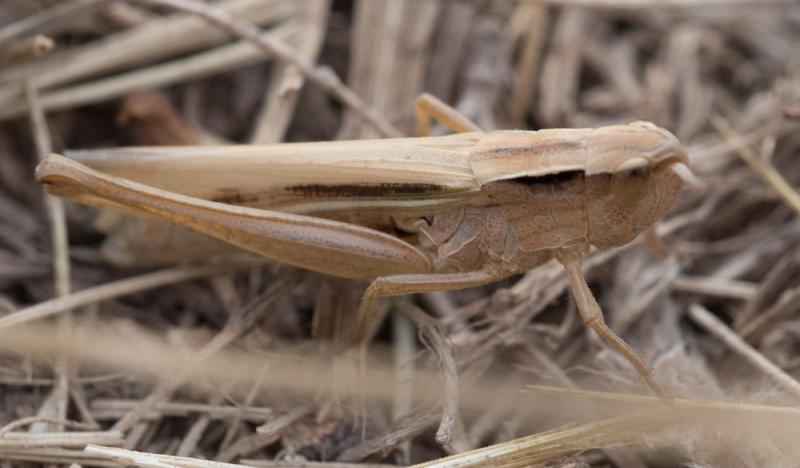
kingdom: Animalia
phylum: Arthropoda
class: Insecta
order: Orthoptera
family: Acrididae
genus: Chorthippus
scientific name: Chorthippus albomarginatus
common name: Lesser marsh grasshopper
